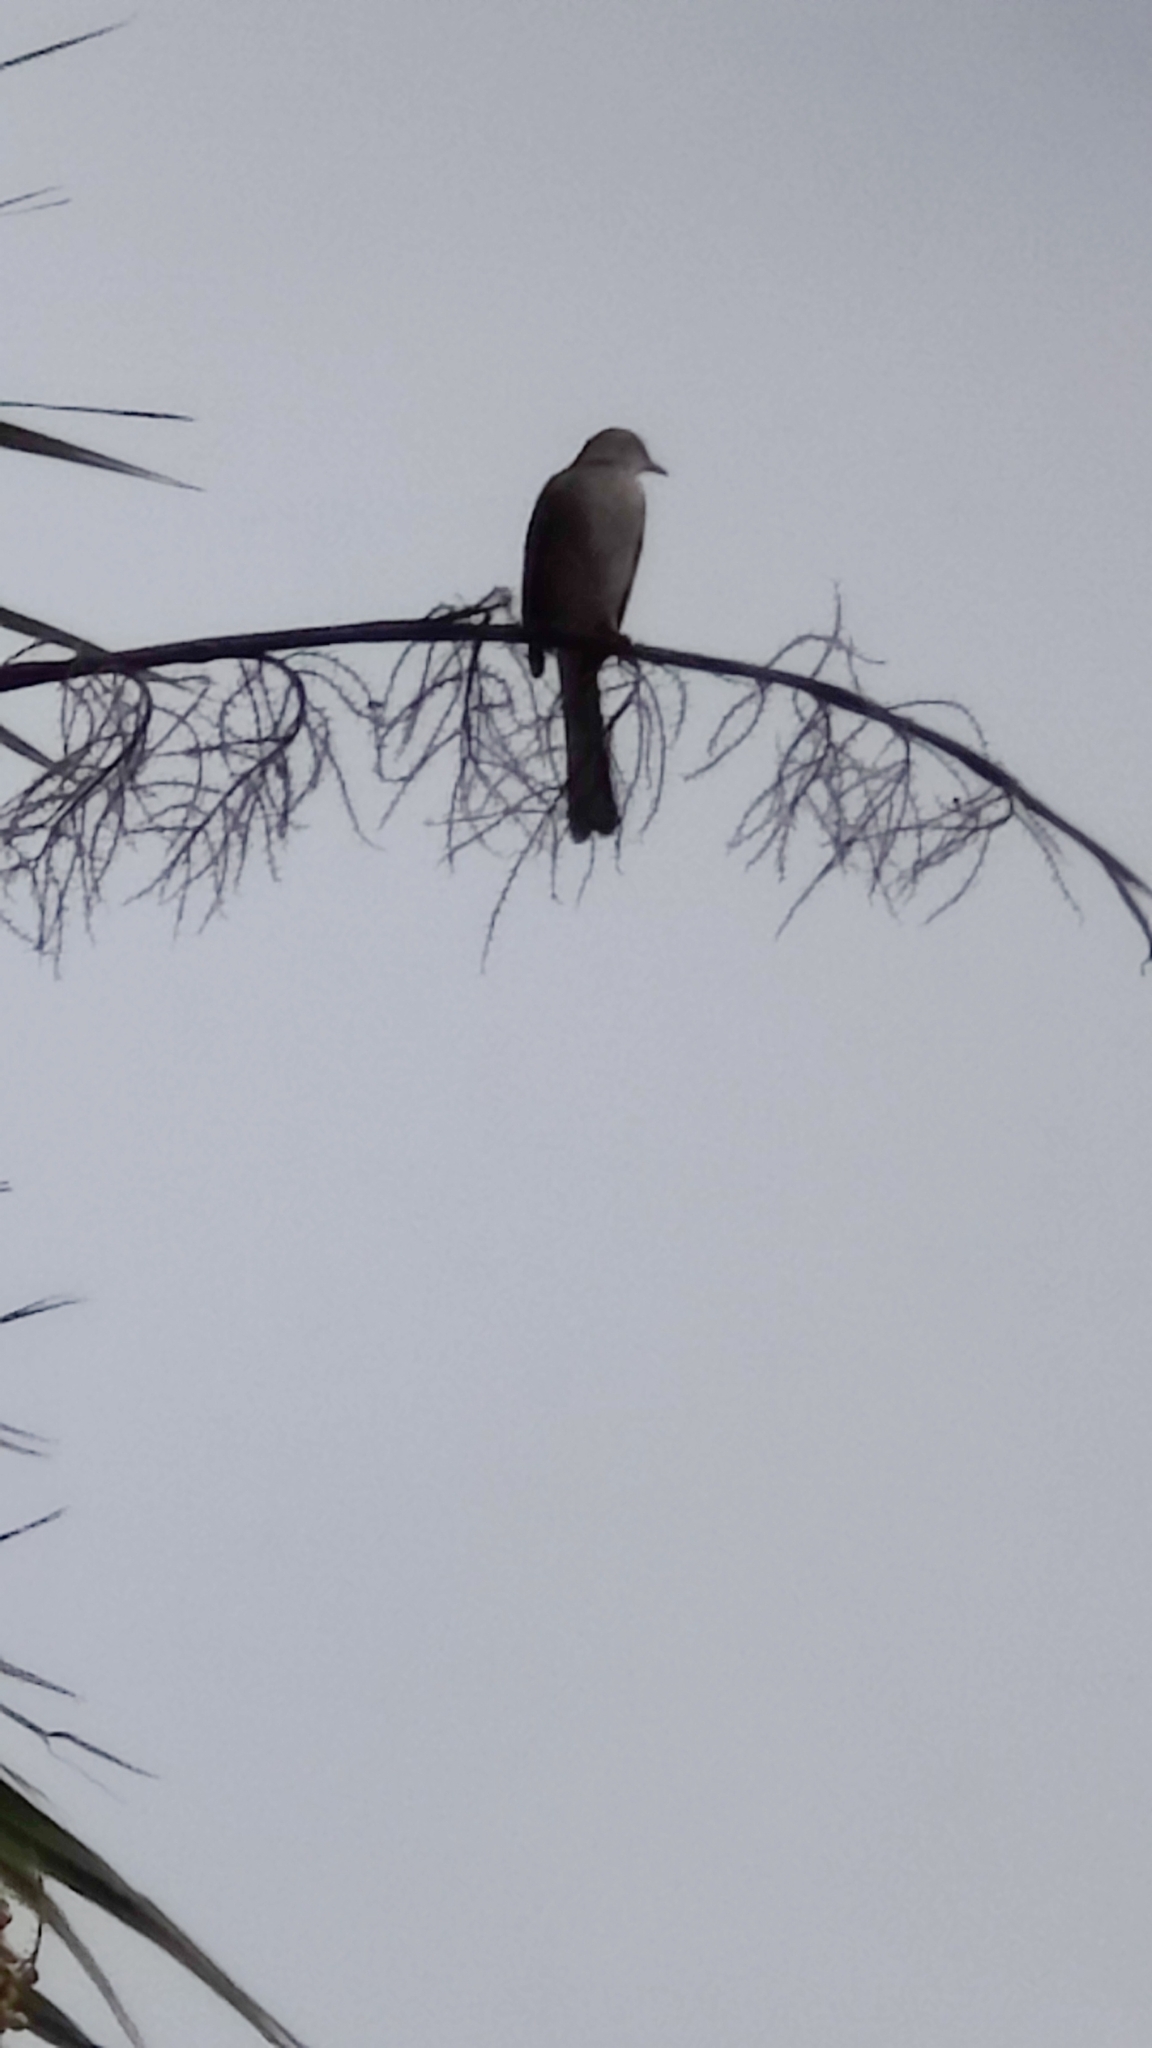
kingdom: Animalia
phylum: Chordata
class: Aves
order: Passeriformes
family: Mimidae
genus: Mimus
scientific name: Mimus polyglottos
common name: Northern mockingbird
